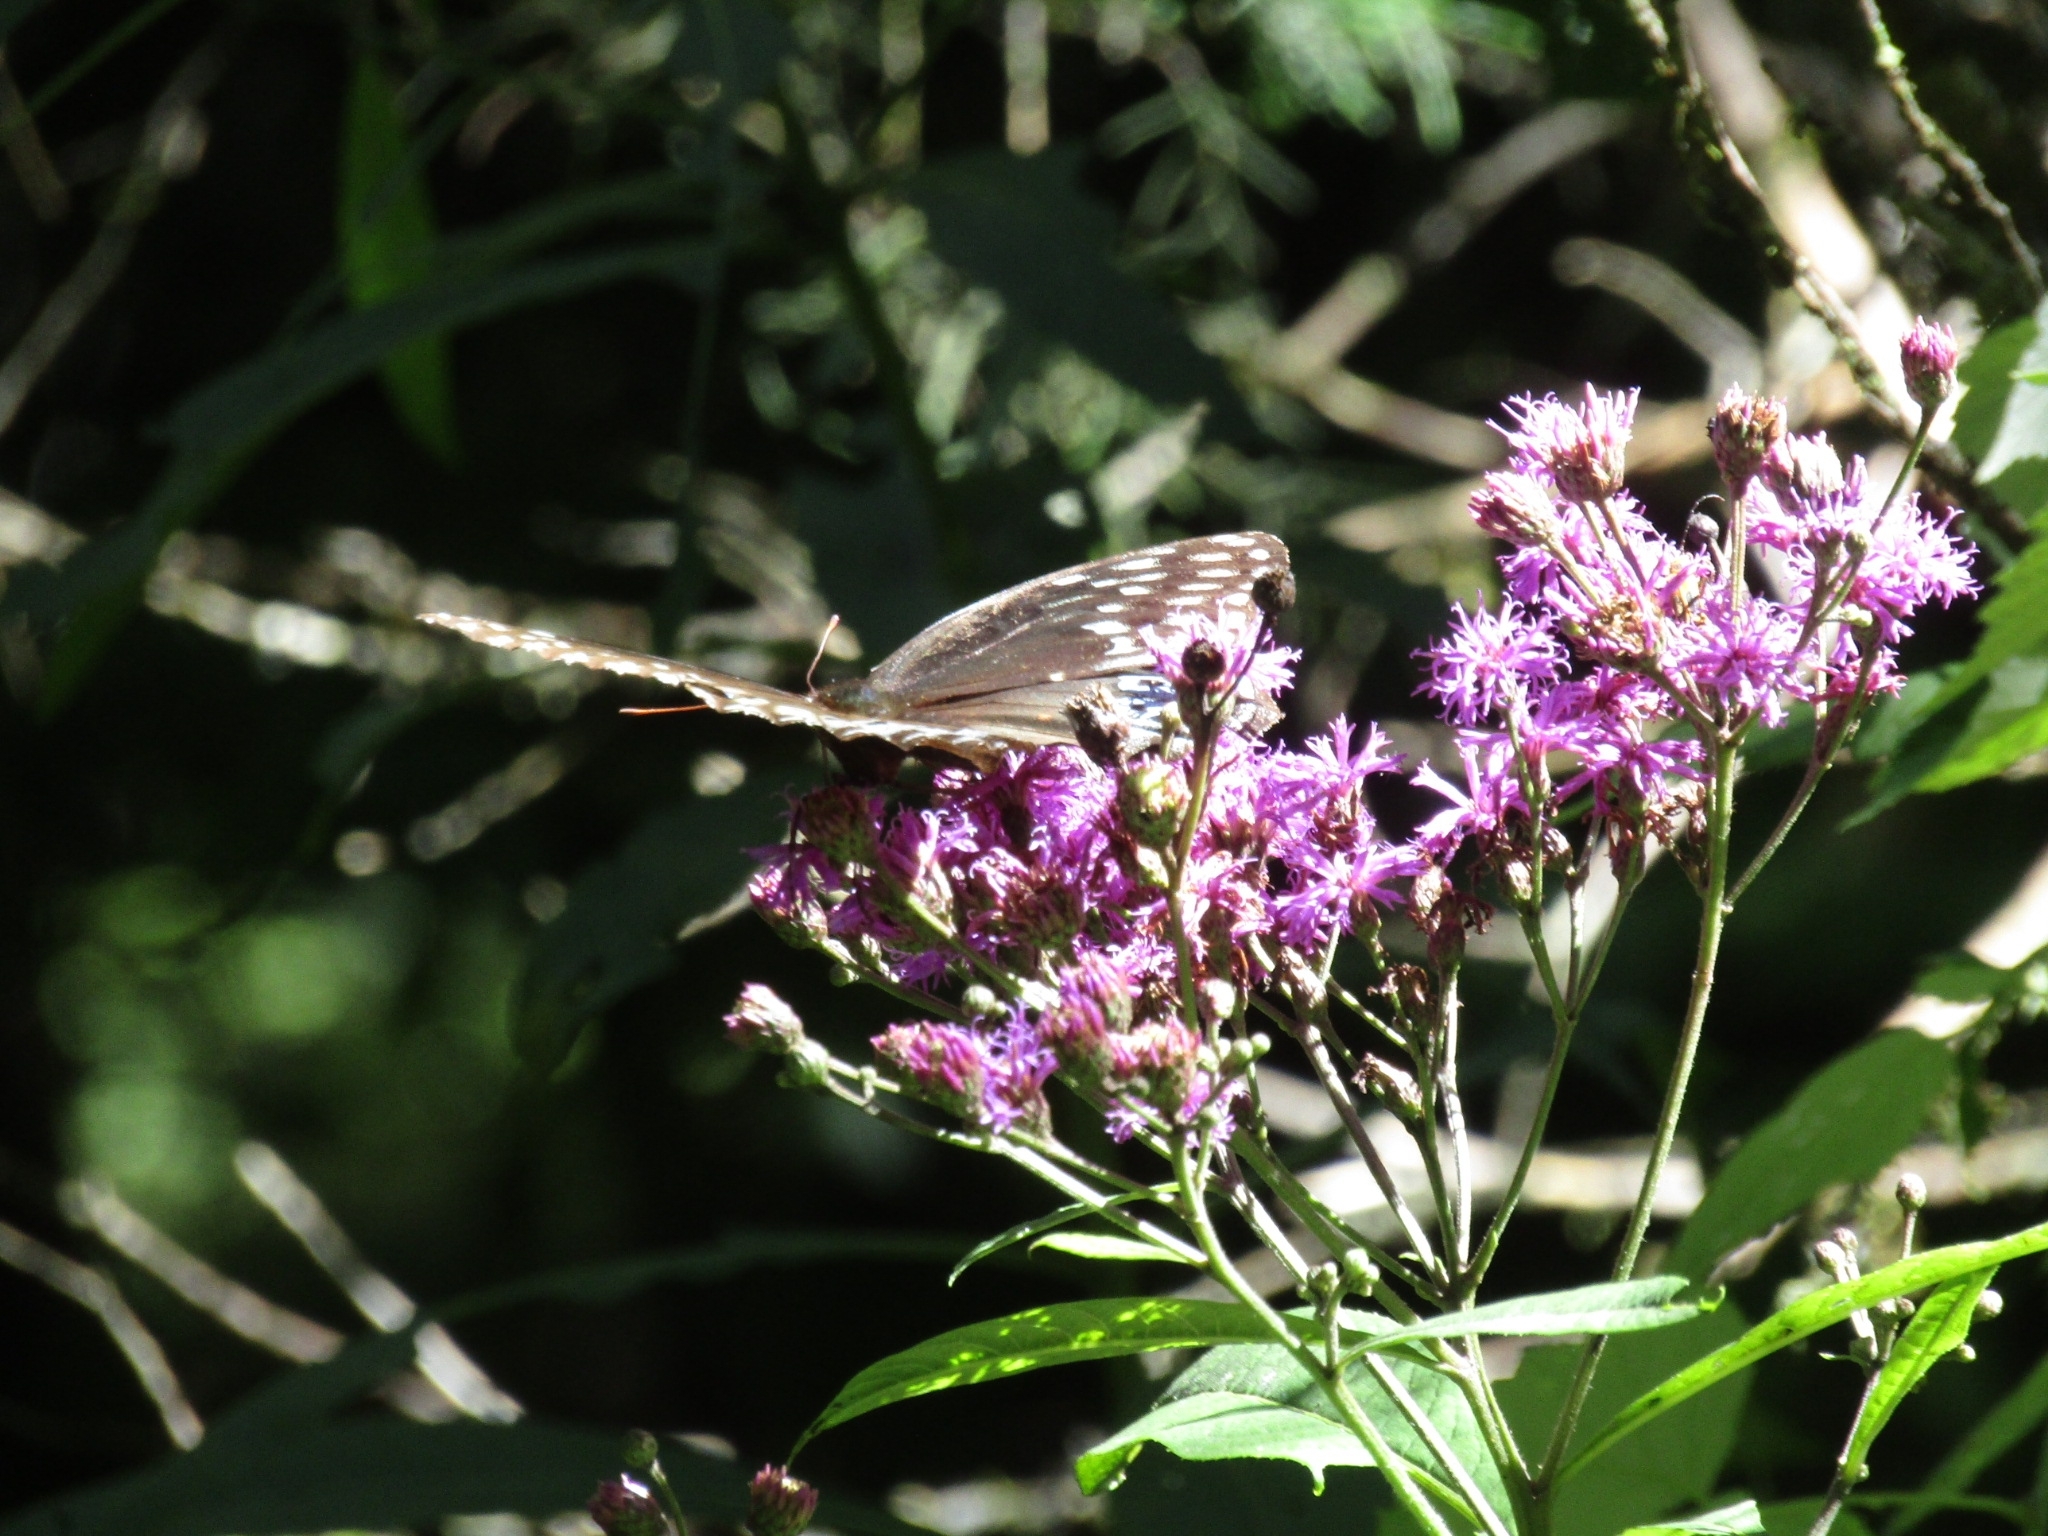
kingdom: Animalia
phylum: Arthropoda
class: Insecta
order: Lepidoptera
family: Nymphalidae
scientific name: Nymphalidae
